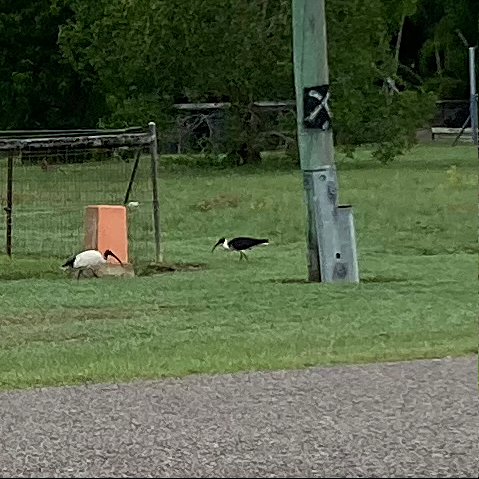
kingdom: Animalia
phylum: Chordata
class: Aves
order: Pelecaniformes
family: Threskiornithidae
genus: Threskiornis
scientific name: Threskiornis spinicollis
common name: Straw-necked ibis
